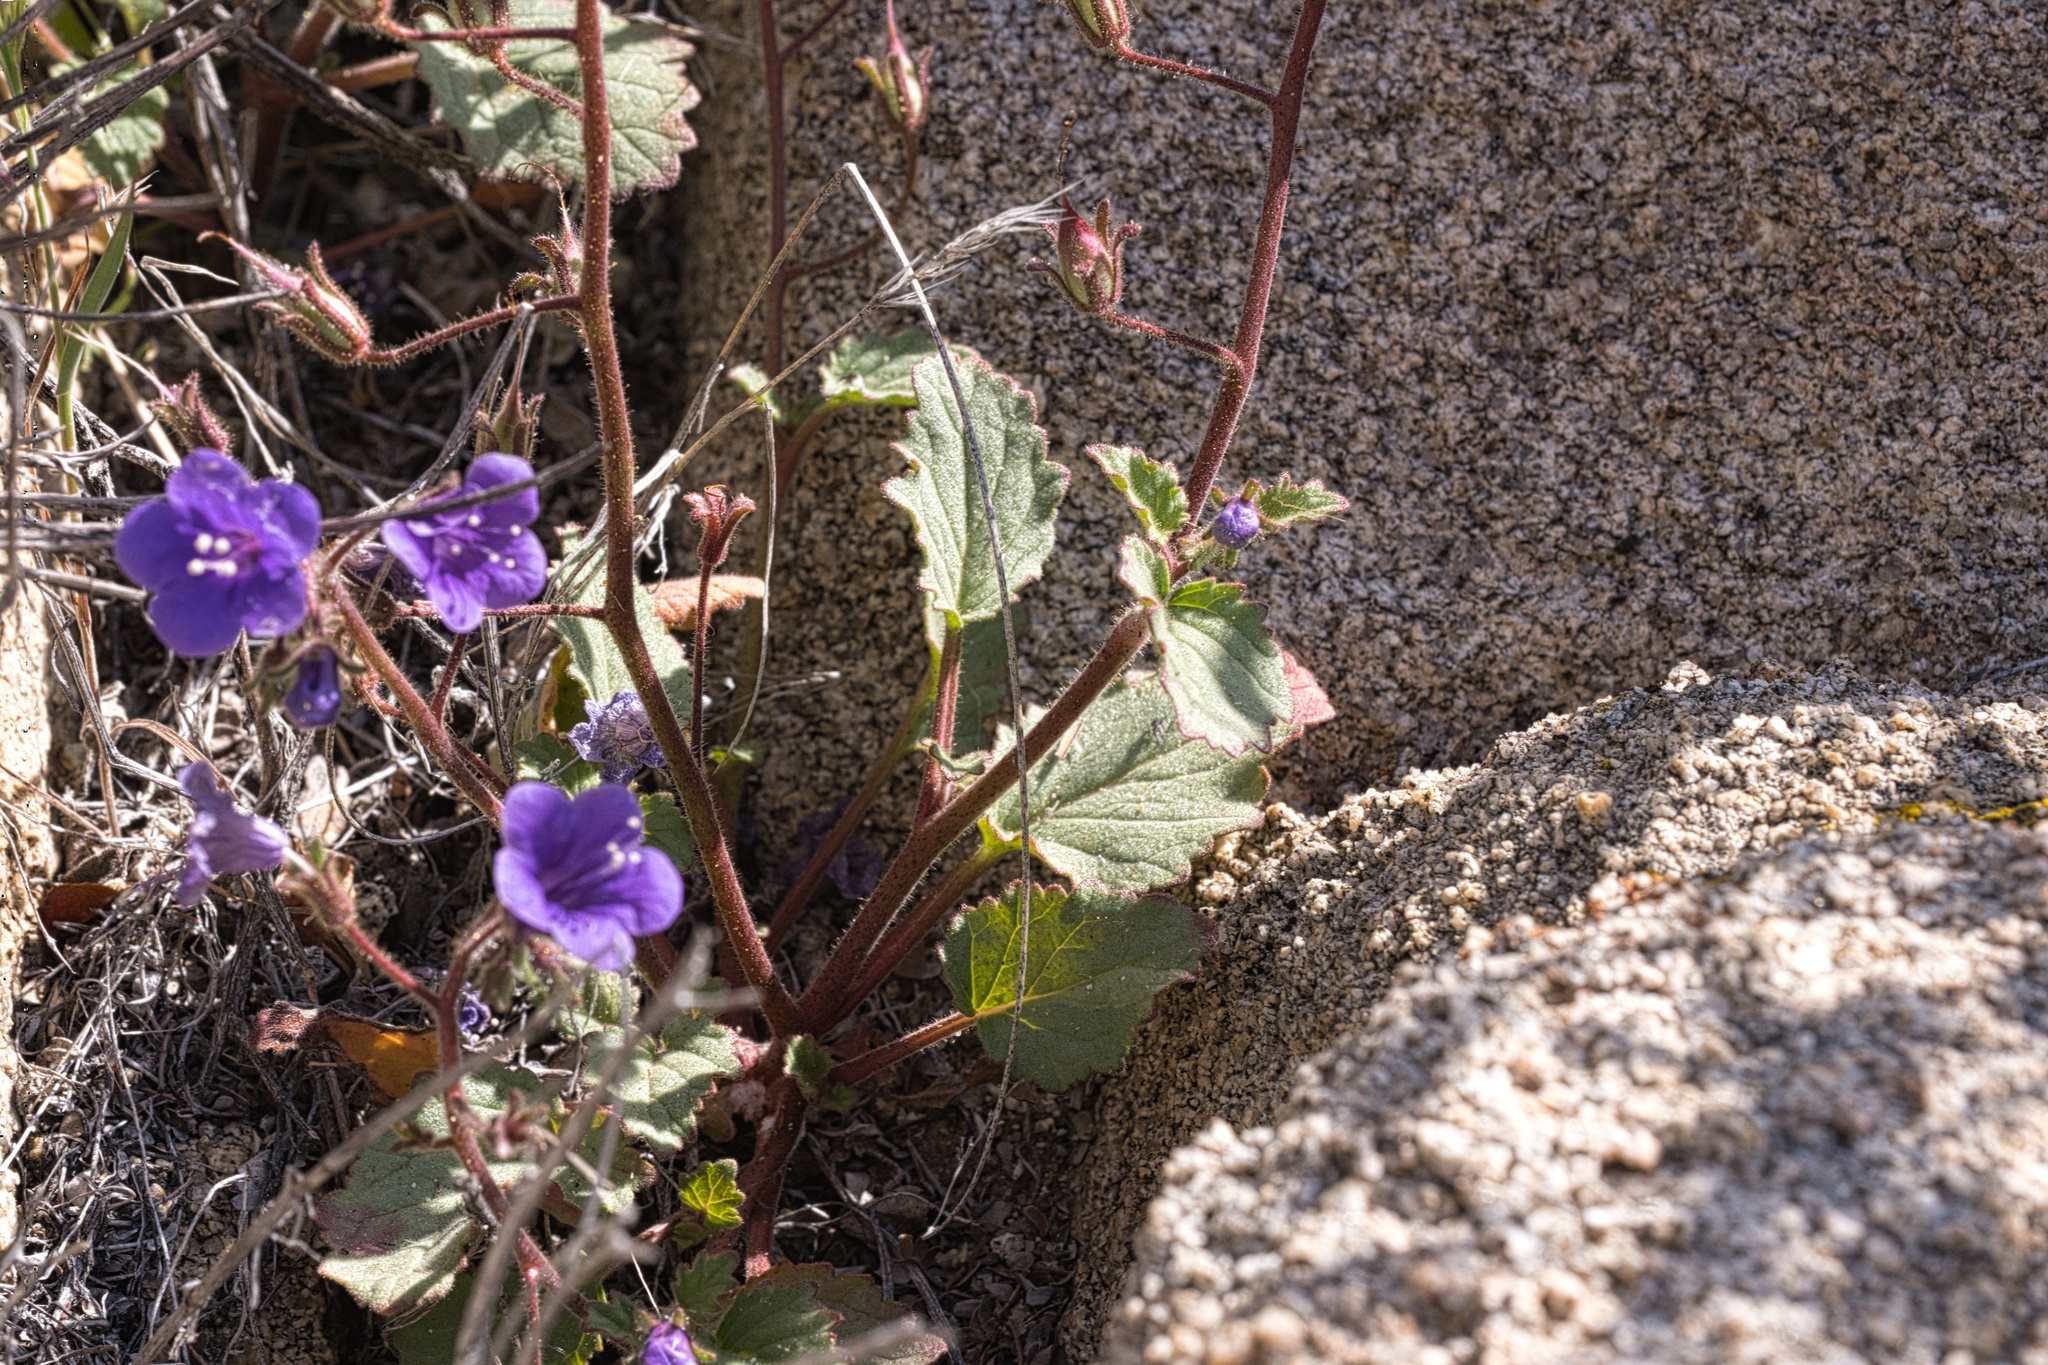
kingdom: Plantae
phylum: Tracheophyta
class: Magnoliopsida
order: Boraginales
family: Hydrophyllaceae
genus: Phacelia
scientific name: Phacelia minor
